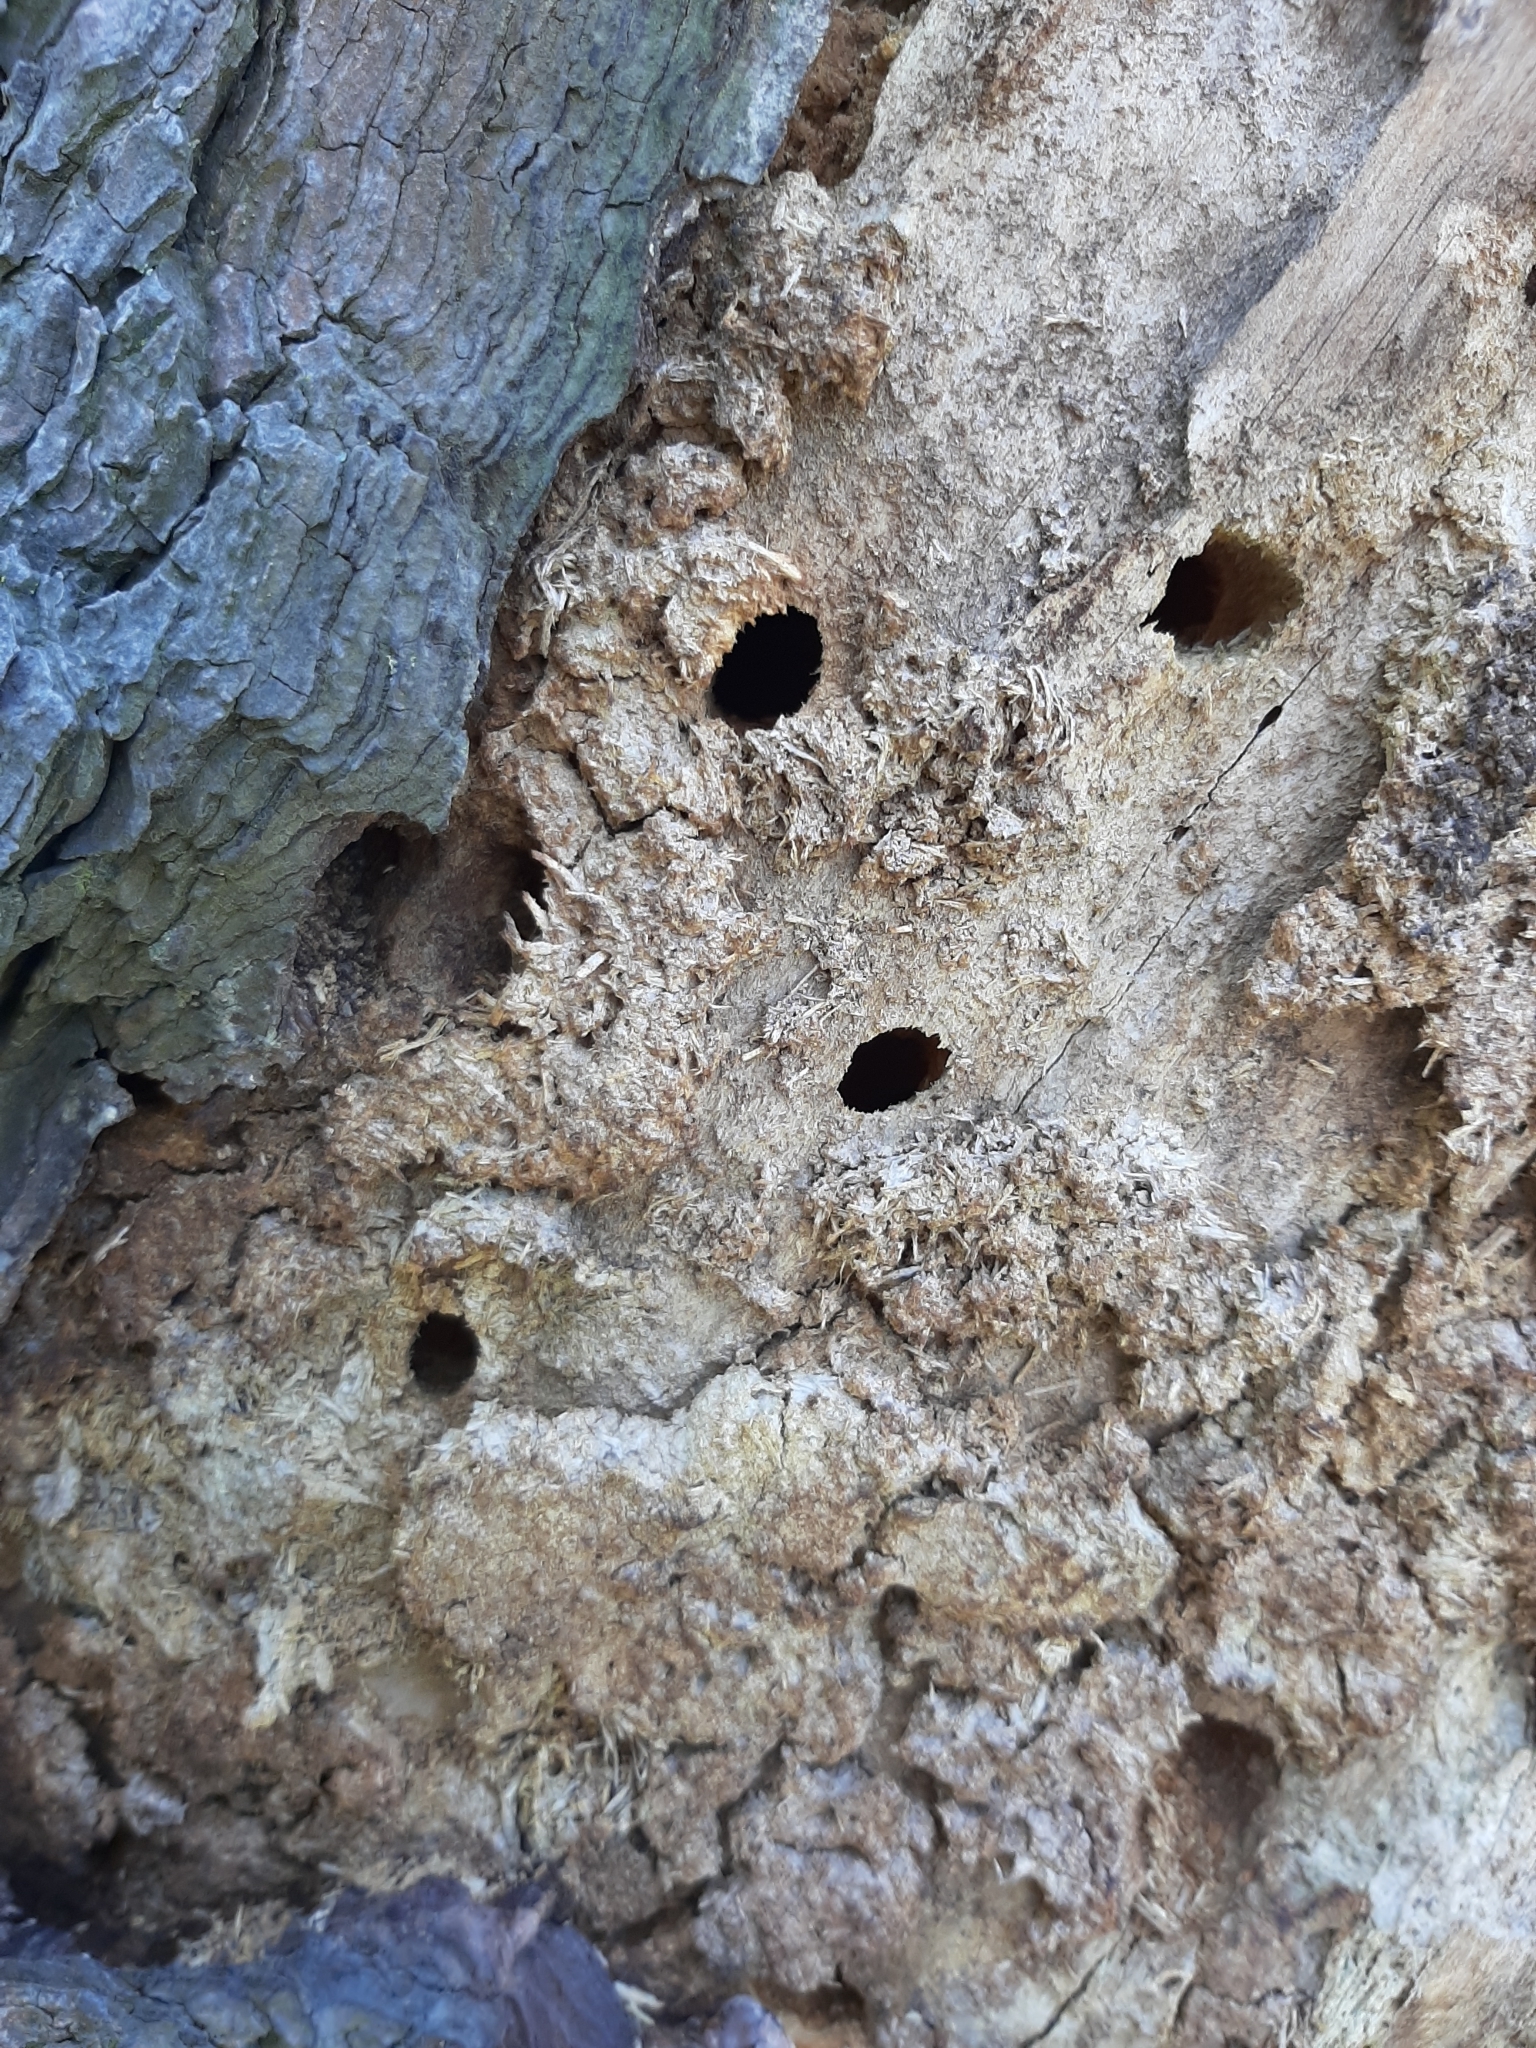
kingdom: Animalia
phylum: Arthropoda
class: Insecta
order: Coleoptera
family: Cerambycidae
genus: Prionoplus
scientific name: Prionoplus reticularis
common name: Huhu beetle
